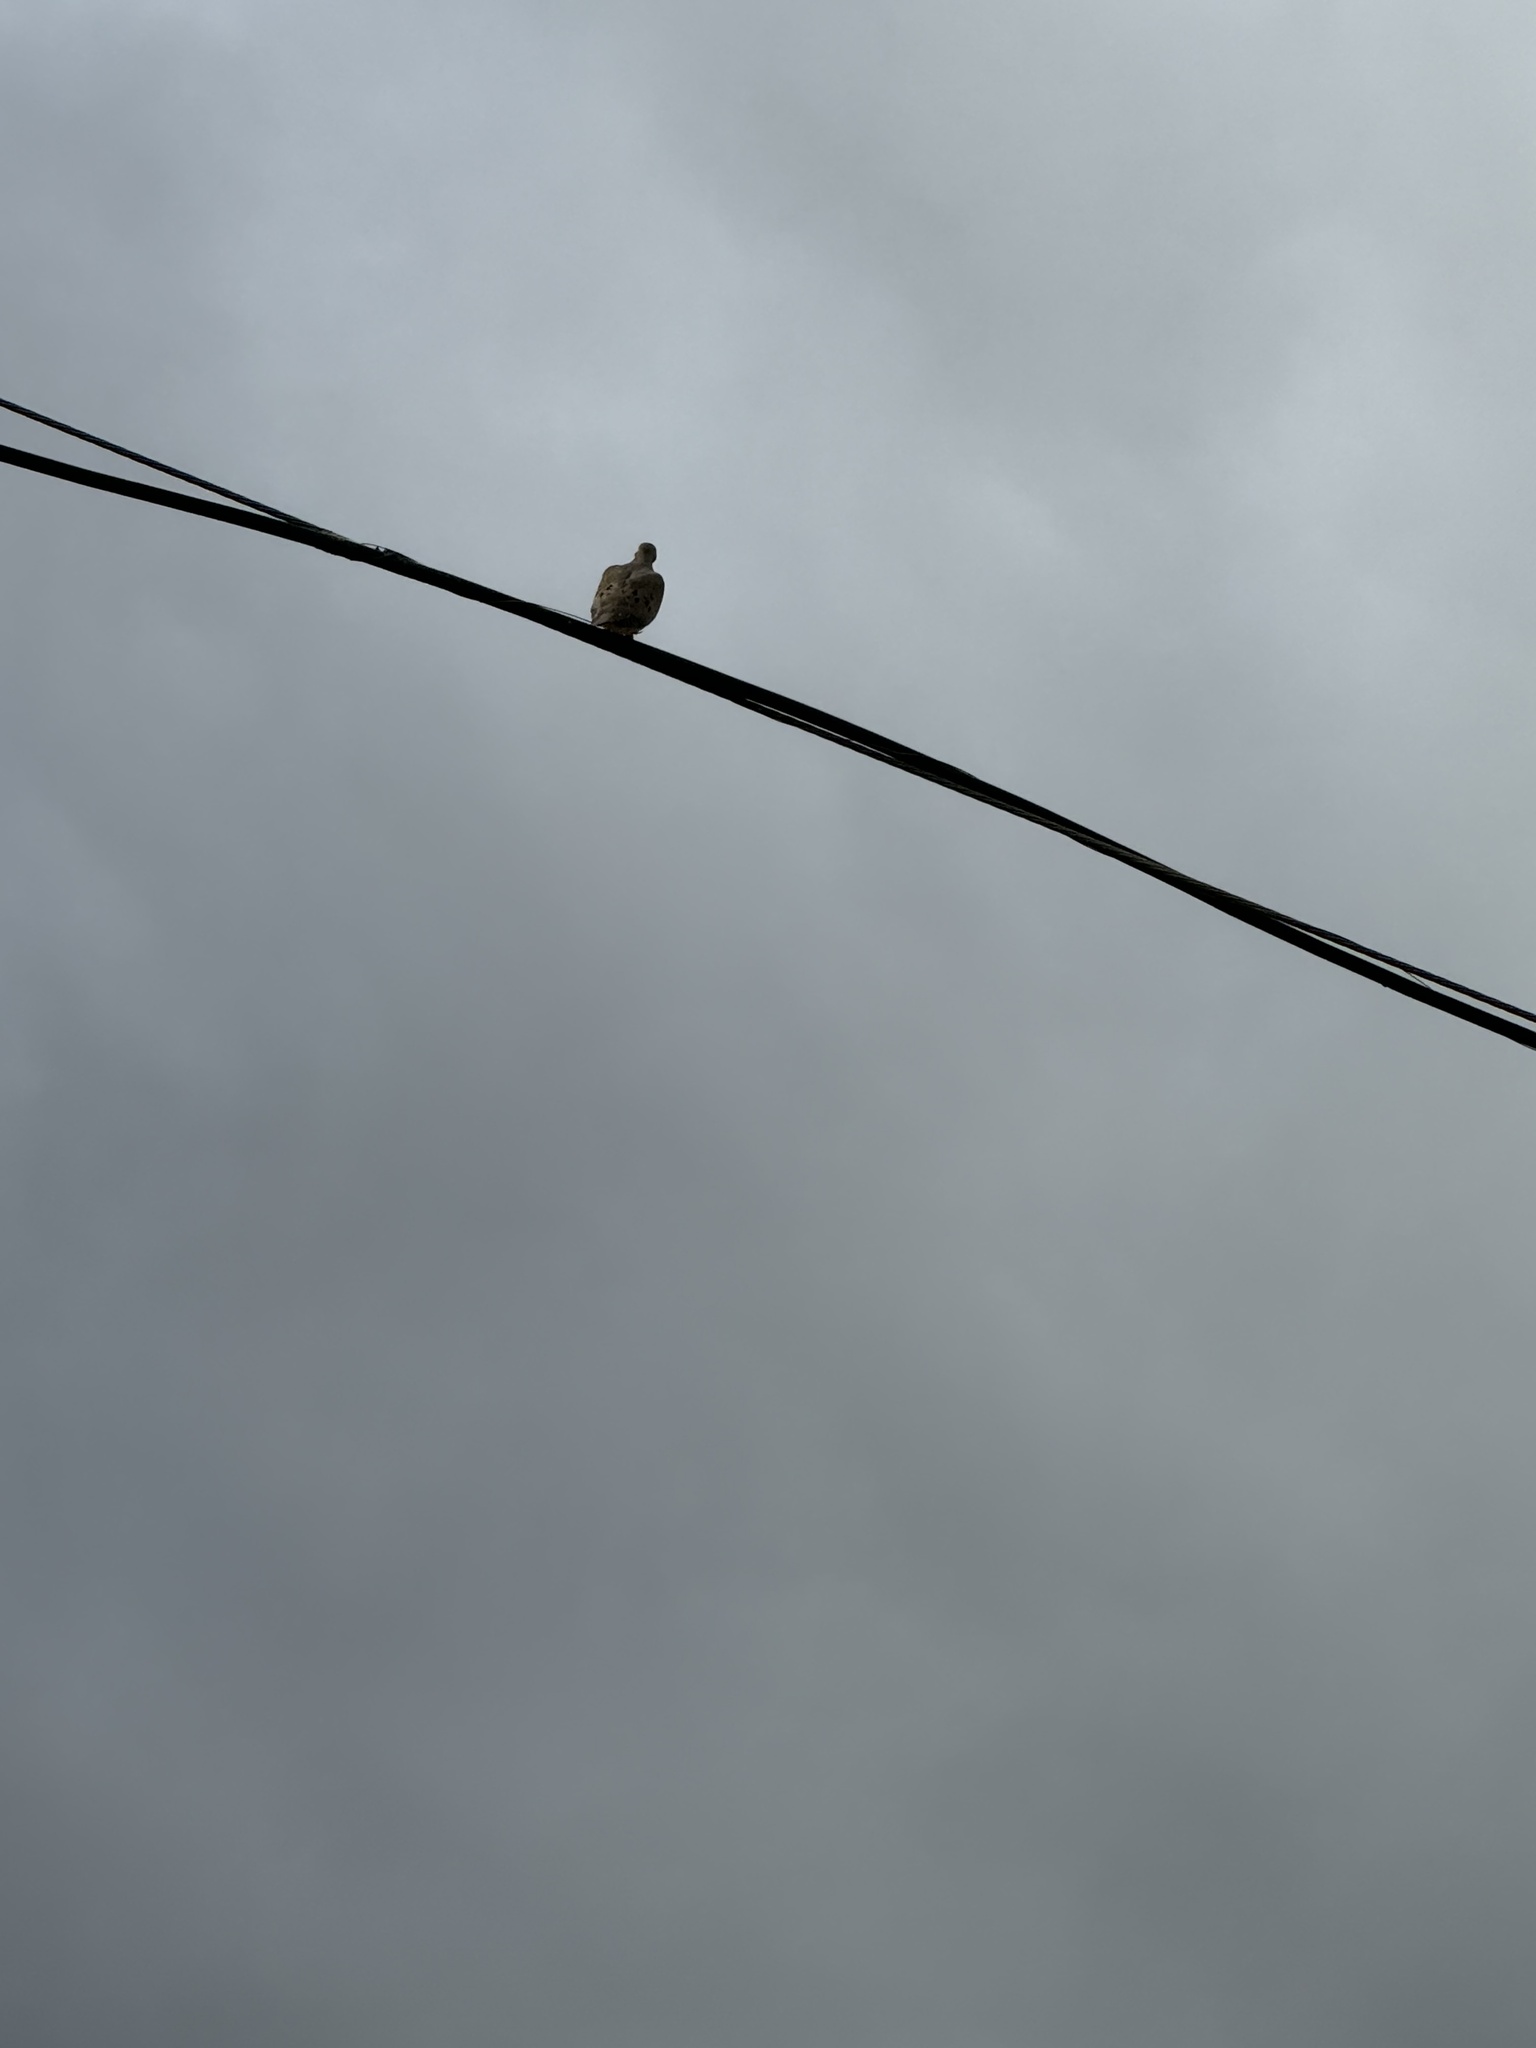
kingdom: Animalia
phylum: Chordata
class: Aves
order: Columbiformes
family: Columbidae
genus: Zenaida
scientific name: Zenaida macroura
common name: Mourning dove
